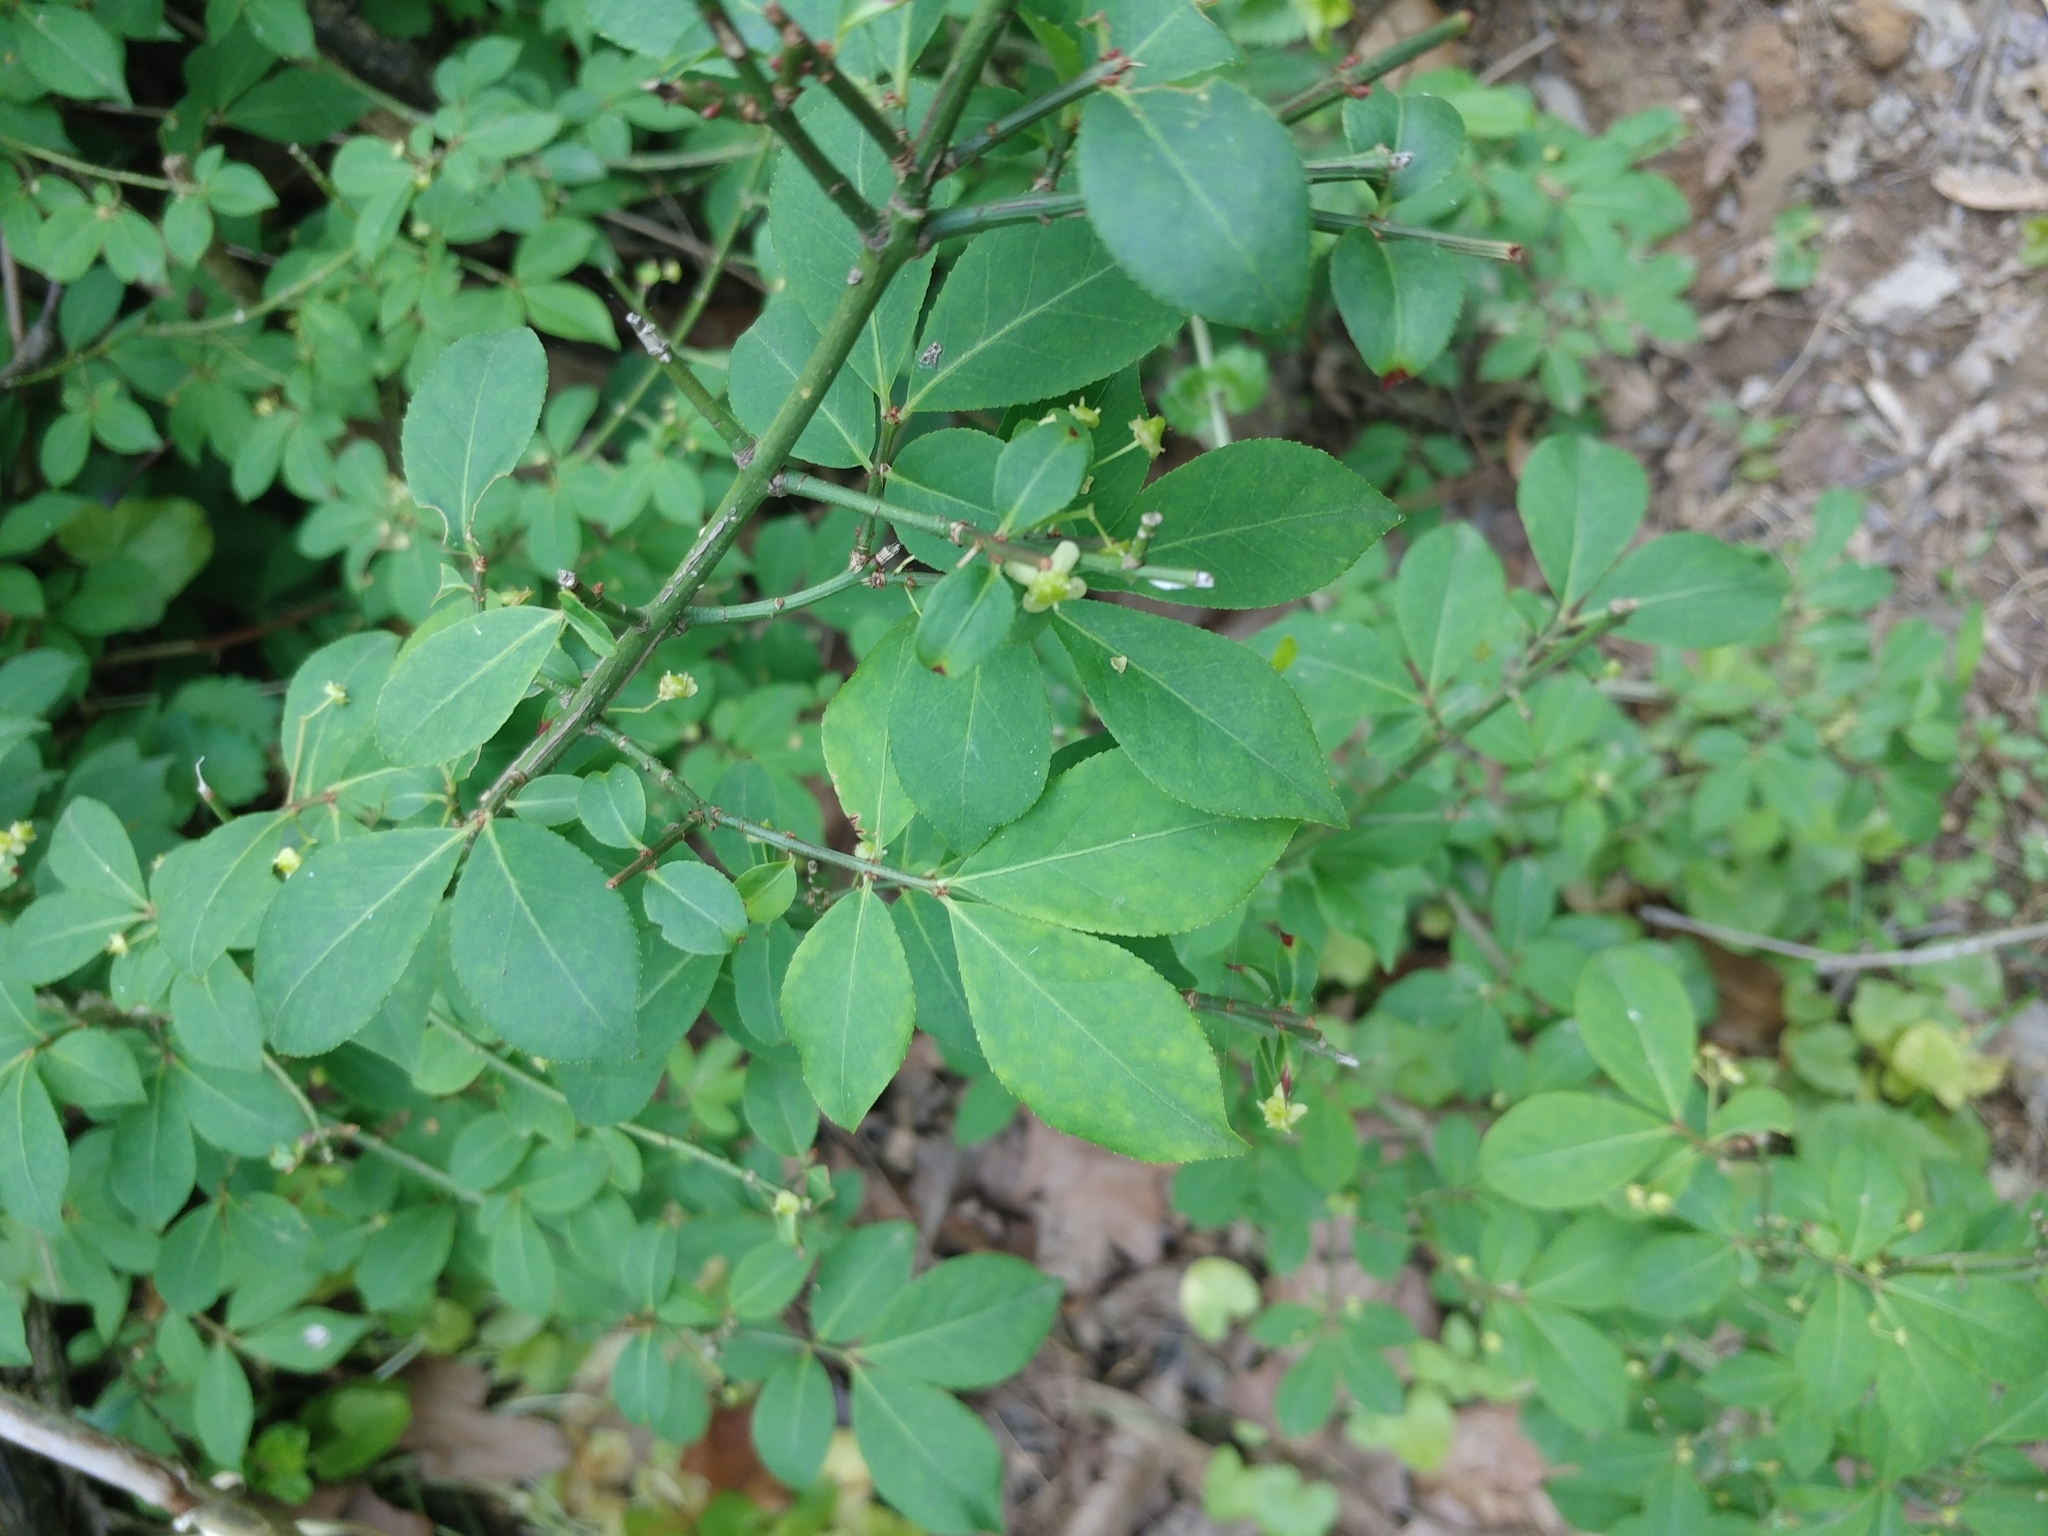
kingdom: Plantae
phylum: Tracheophyta
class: Magnoliopsida
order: Celastrales
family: Celastraceae
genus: Euonymus
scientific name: Euonymus alatus
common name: Winged euonymus
